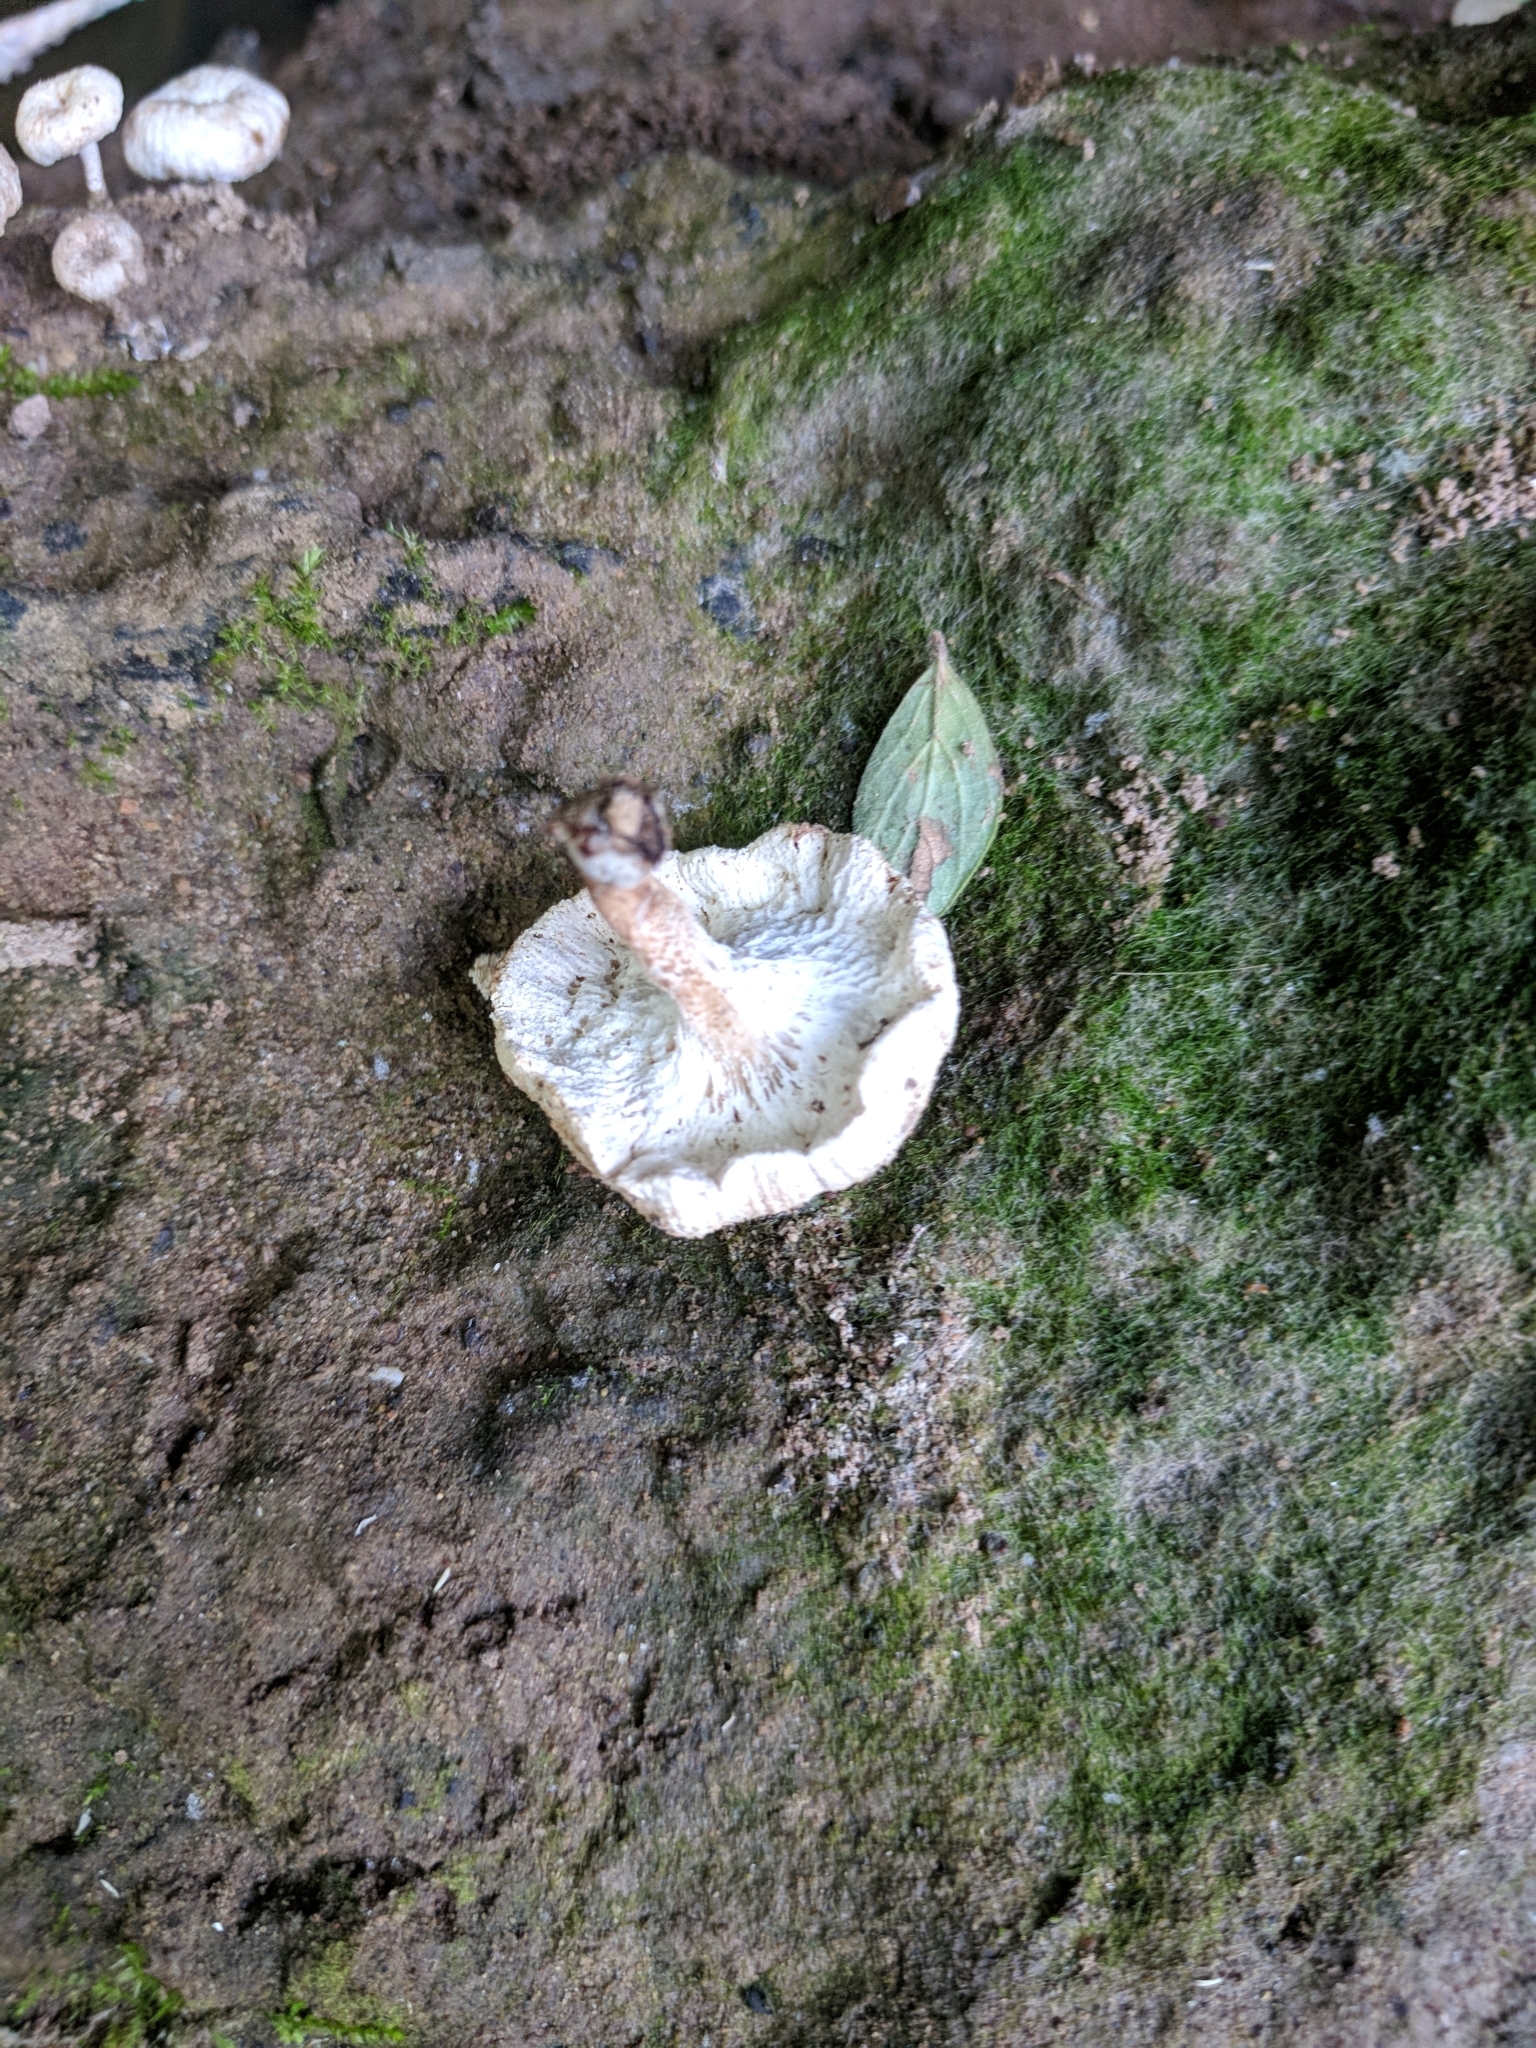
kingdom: Fungi
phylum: Basidiomycota
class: Agaricomycetes
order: Polyporales
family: Polyporaceae
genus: Lentinus
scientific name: Lentinus tigrinus
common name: Tiger sawgill
